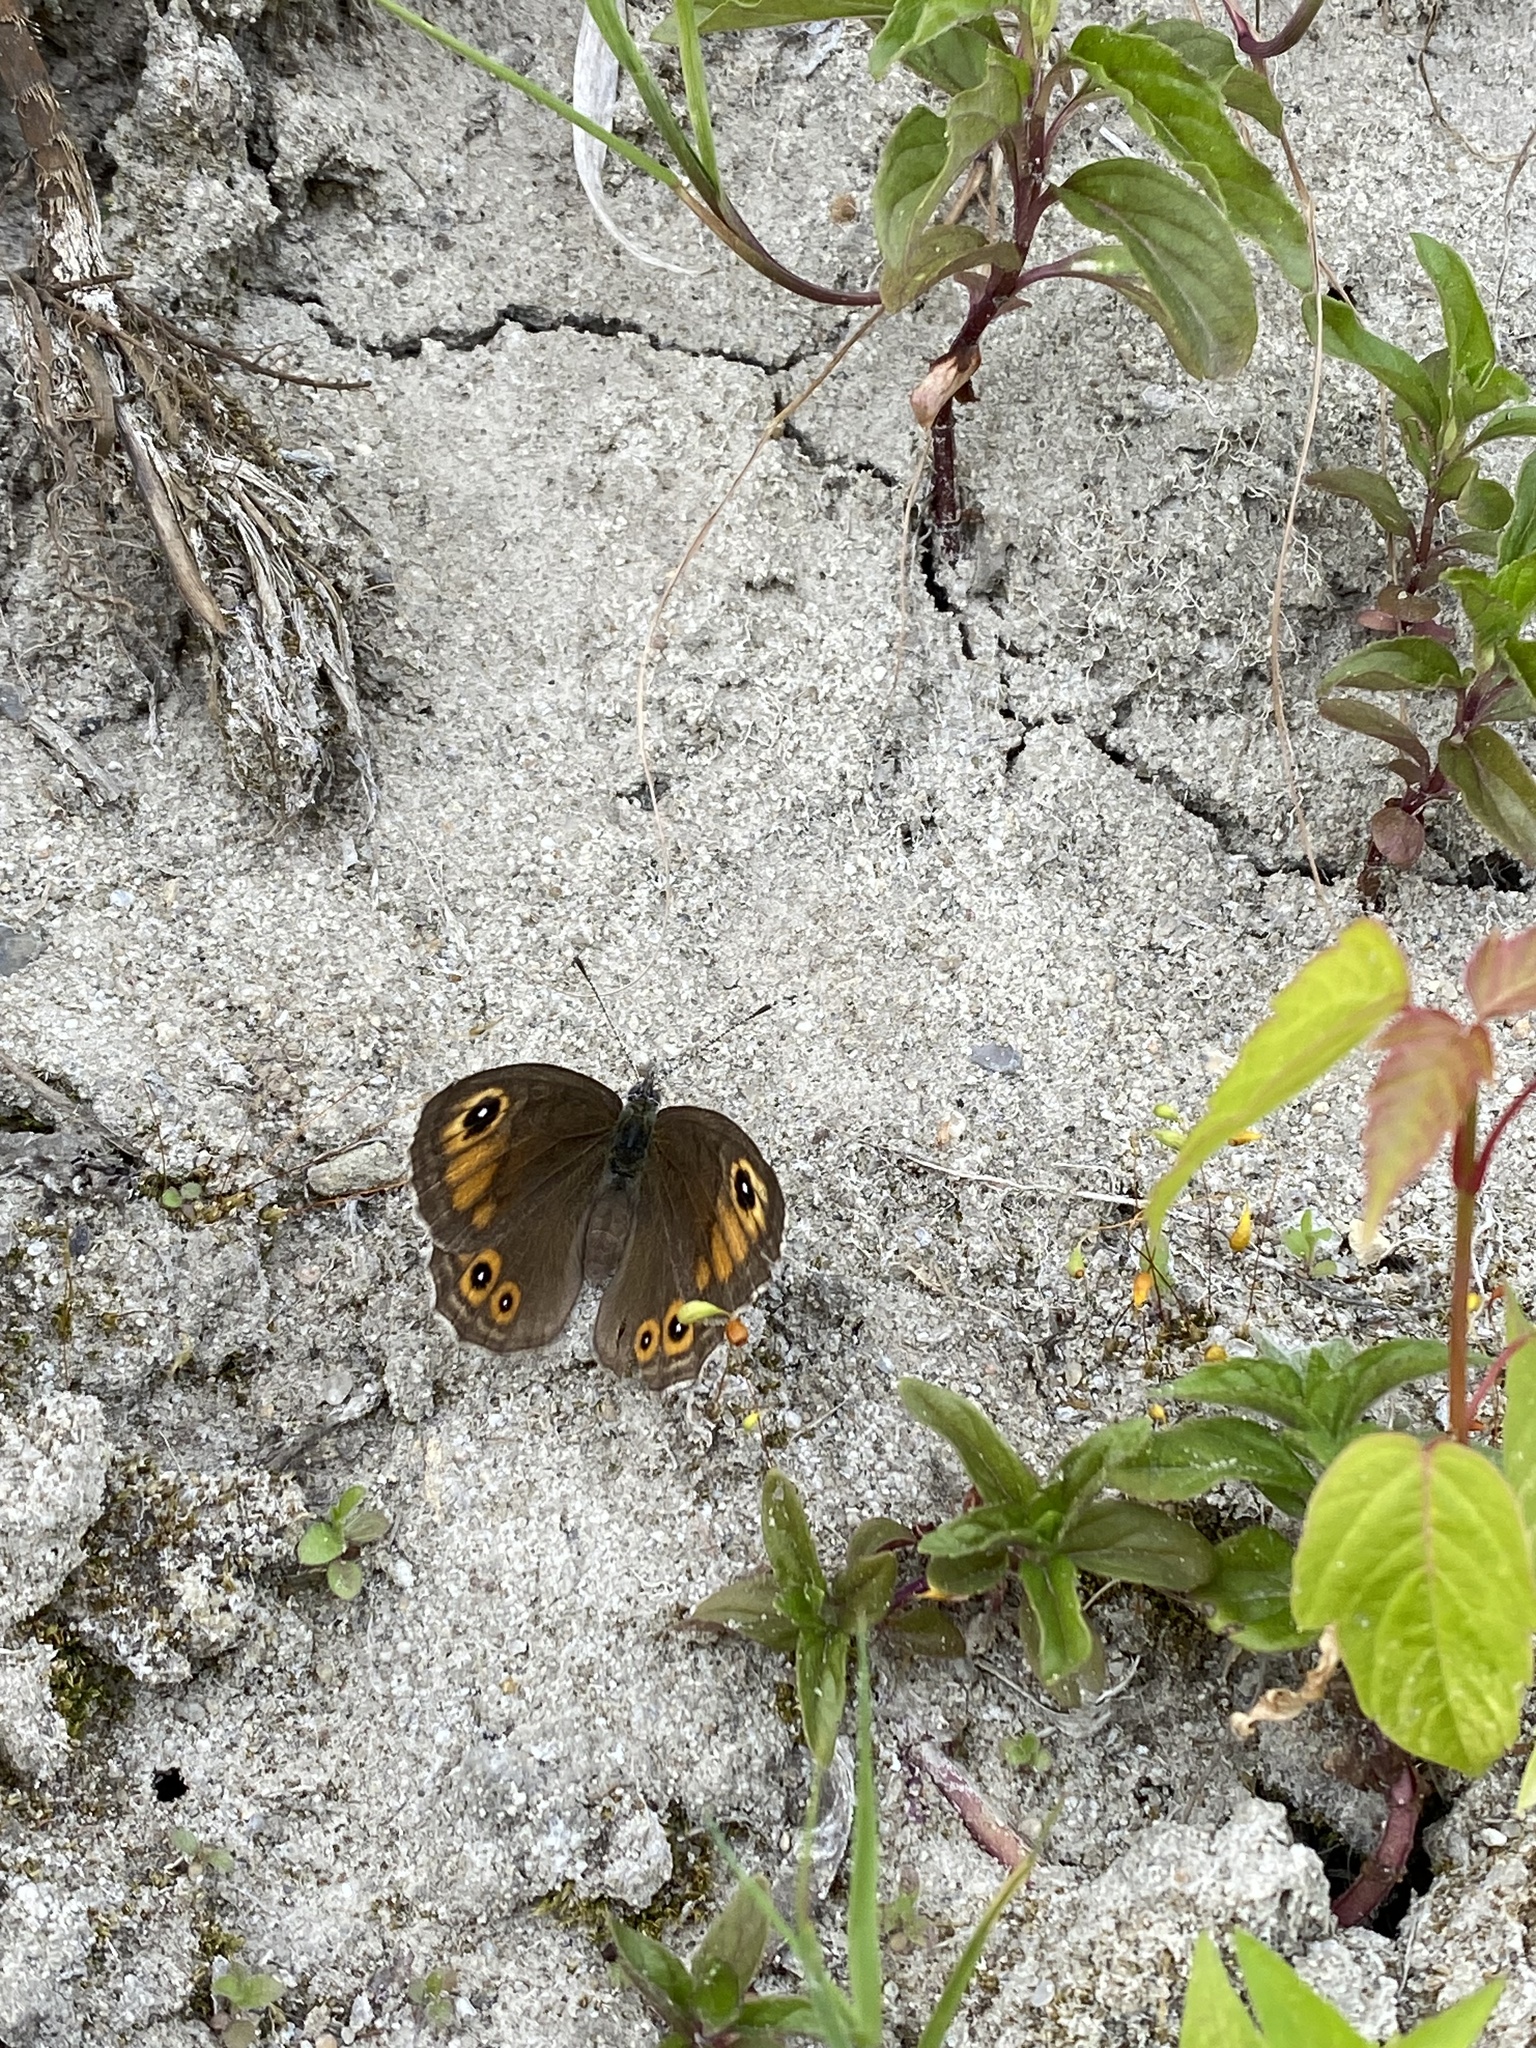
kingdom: Animalia
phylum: Arthropoda
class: Insecta
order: Lepidoptera
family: Nymphalidae
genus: Pararge
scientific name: Pararge Lasiommata maera
